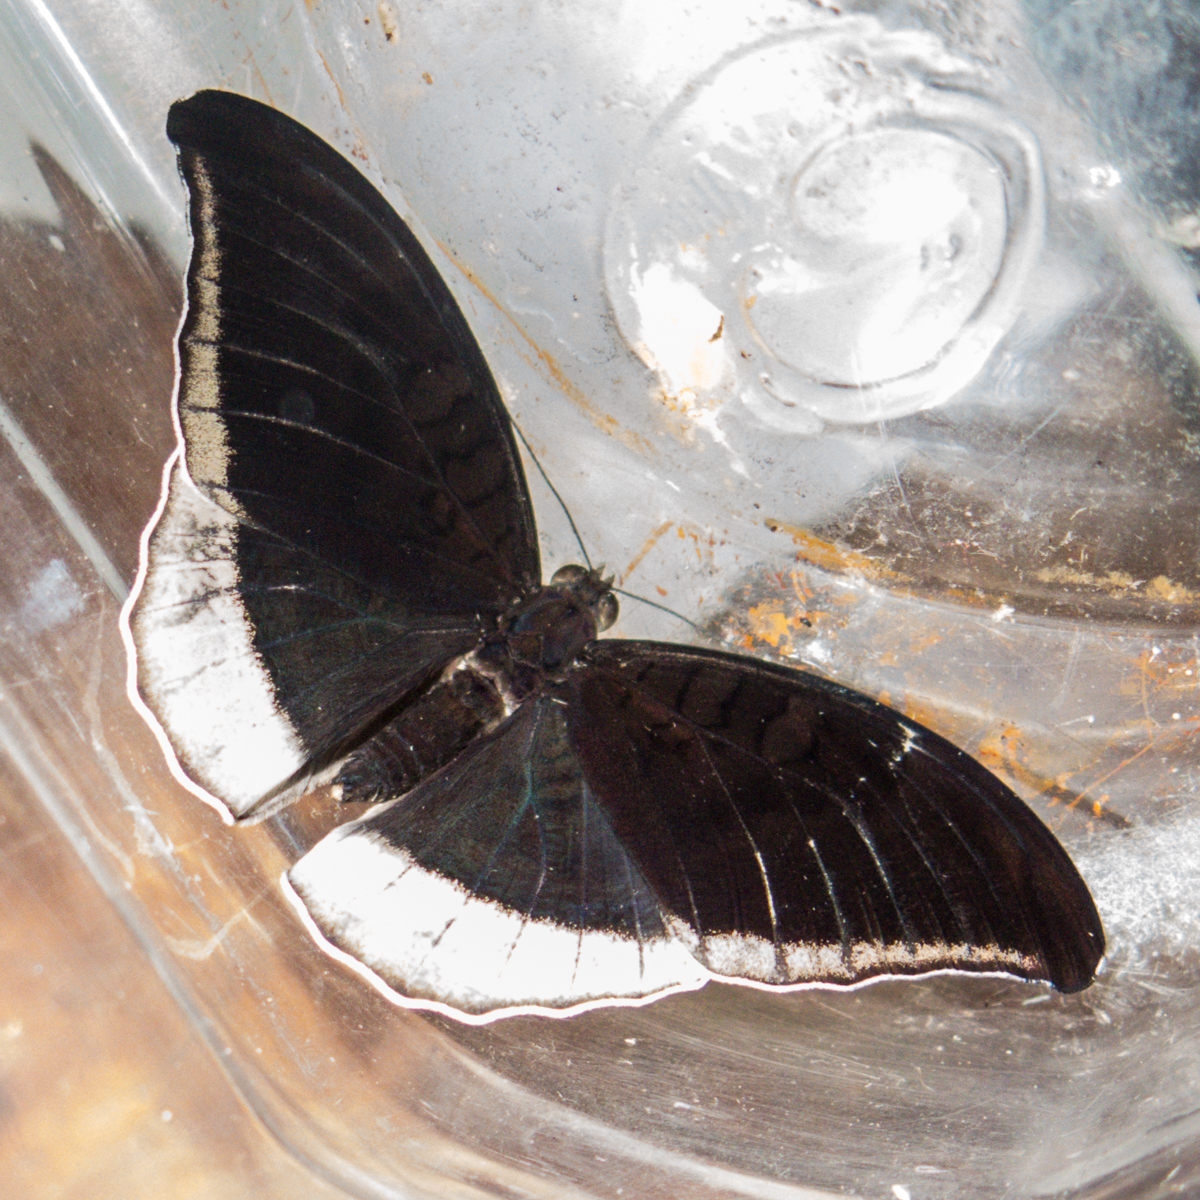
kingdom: Animalia
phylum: Arthropoda
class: Insecta
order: Lepidoptera
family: Nymphalidae
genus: Tanaecia
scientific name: Tanaecia lepidea
